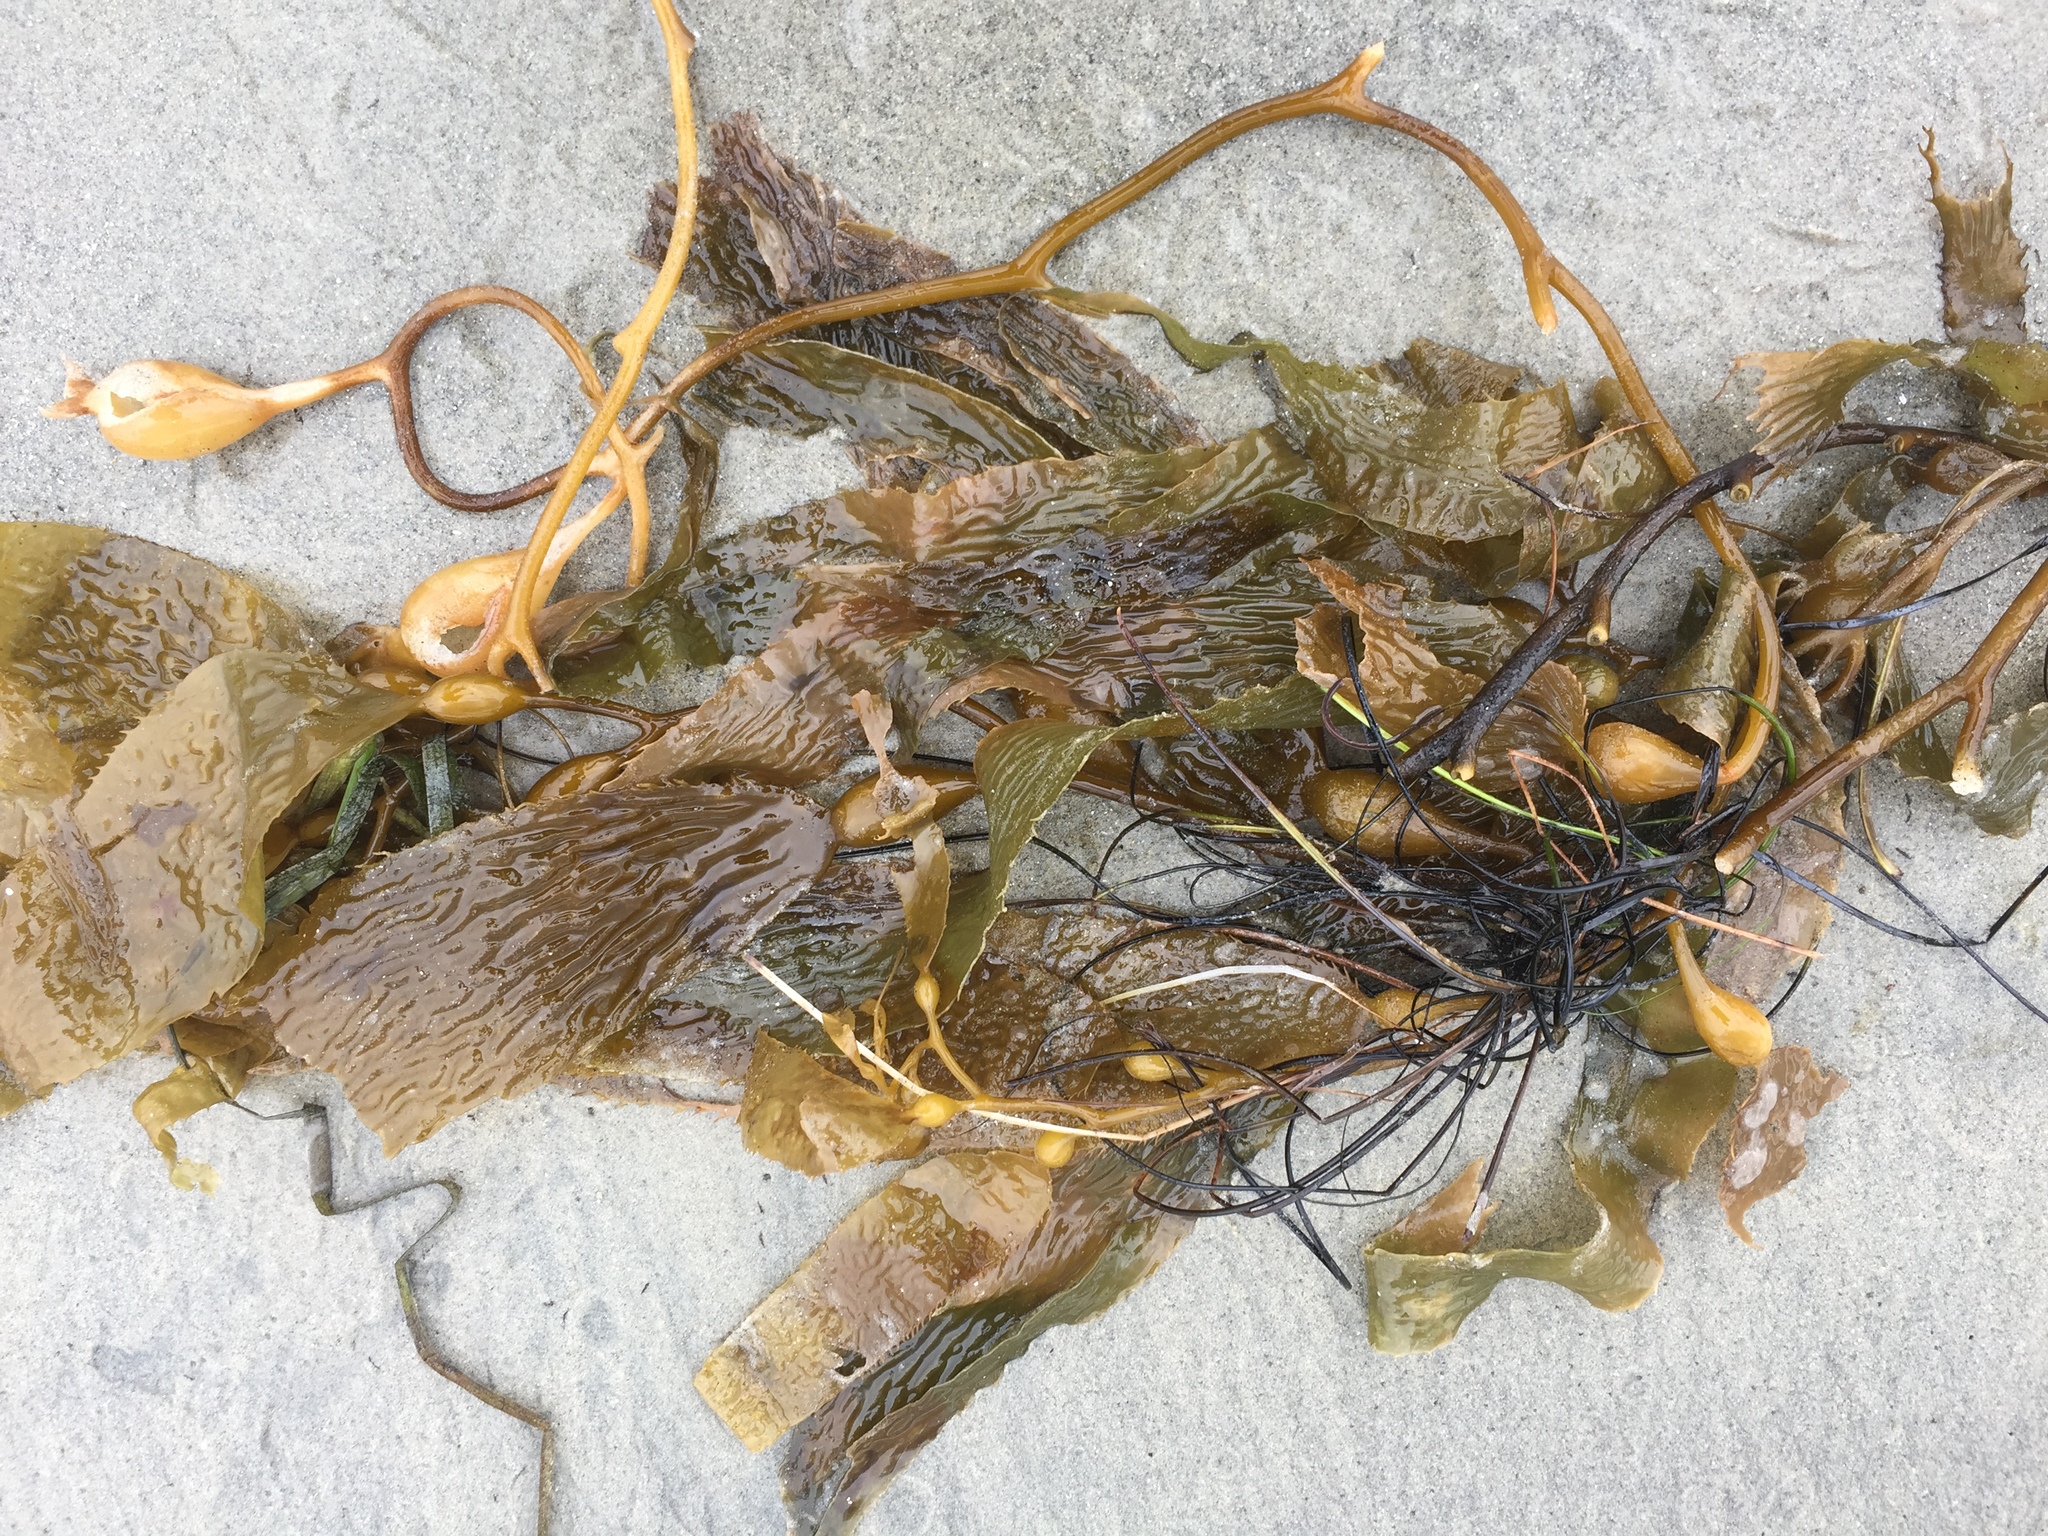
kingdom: Chromista
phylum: Ochrophyta
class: Phaeophyceae
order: Laminariales
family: Laminariaceae
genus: Macrocystis
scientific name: Macrocystis pyrifera
